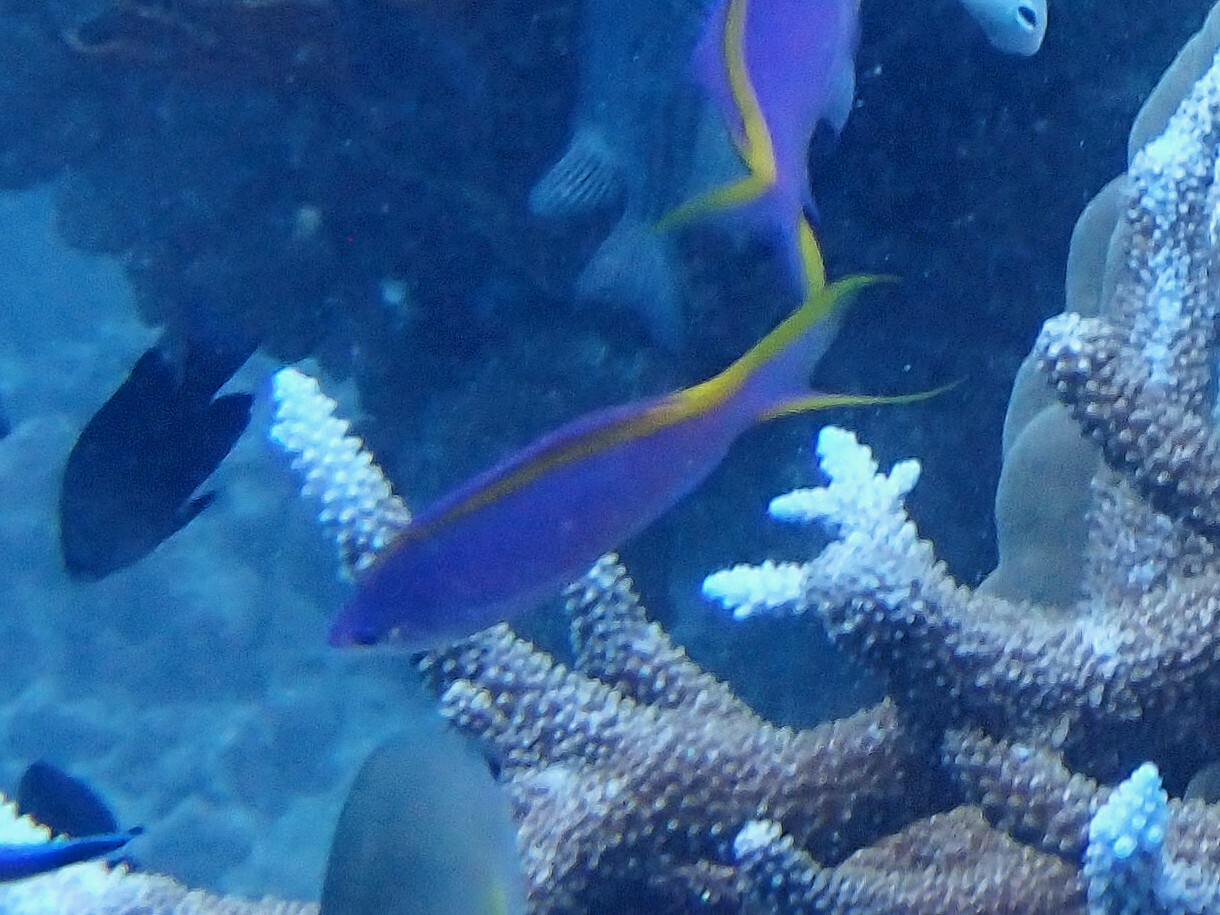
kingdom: Animalia
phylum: Chordata
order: Perciformes
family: Serranidae
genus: Pseudanthias
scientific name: Pseudanthias tuka
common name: Purple queen
